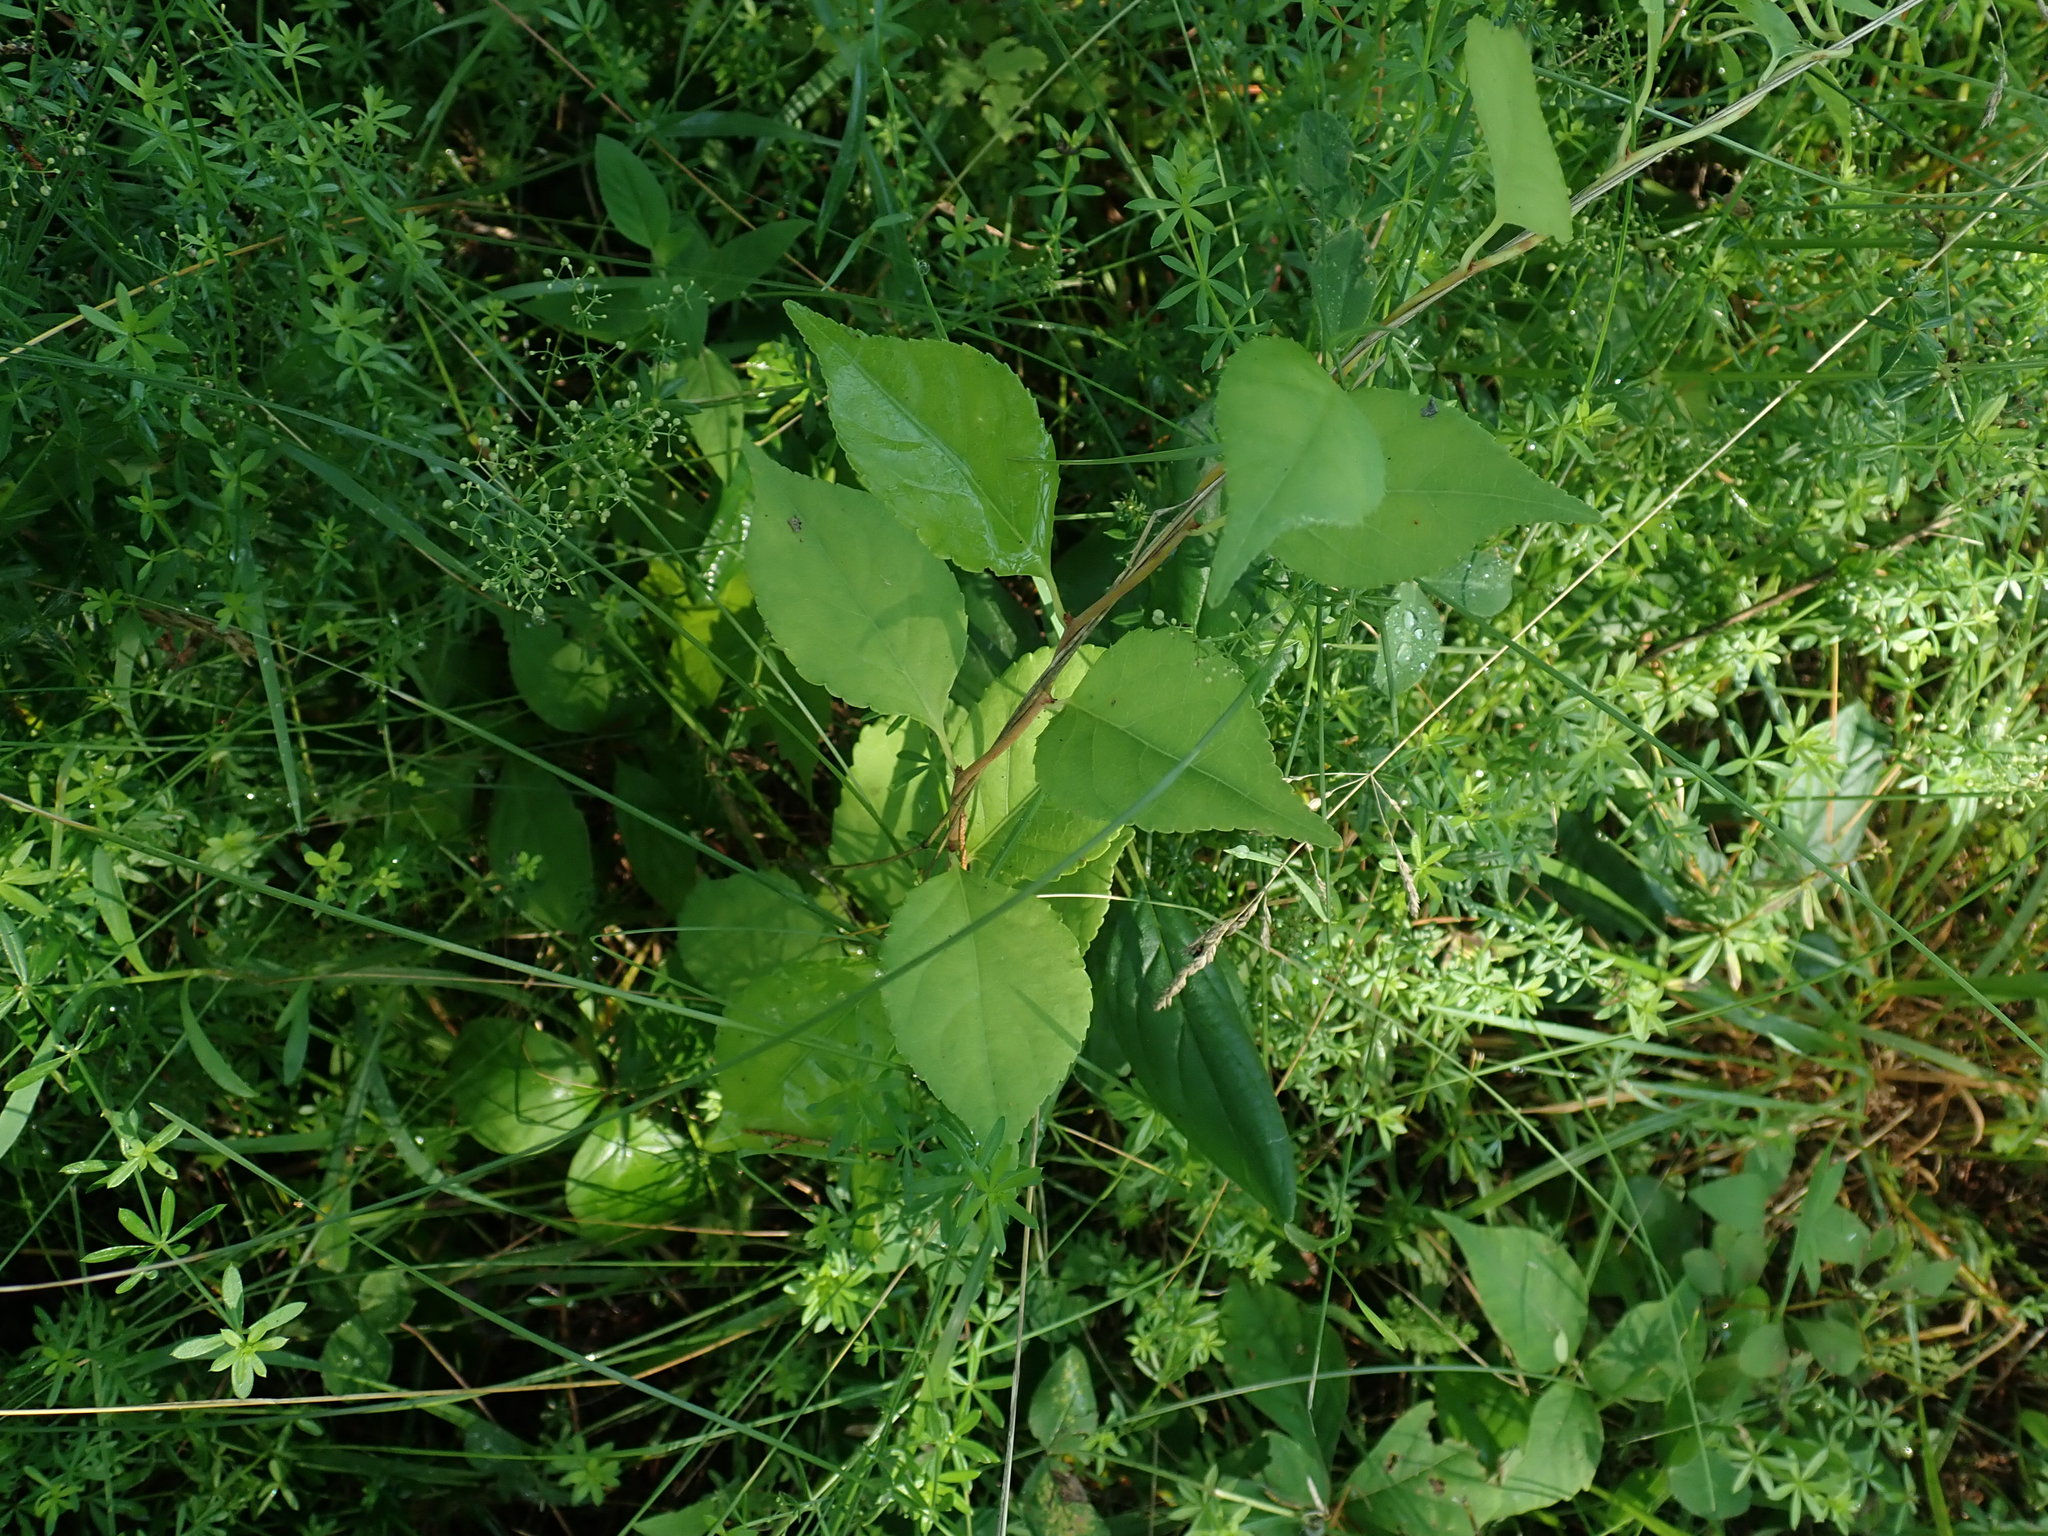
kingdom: Plantae
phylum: Tracheophyta
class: Magnoliopsida
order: Celastrales
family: Celastraceae
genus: Celastrus
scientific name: Celastrus orbiculatus
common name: Oriental bittersweet
